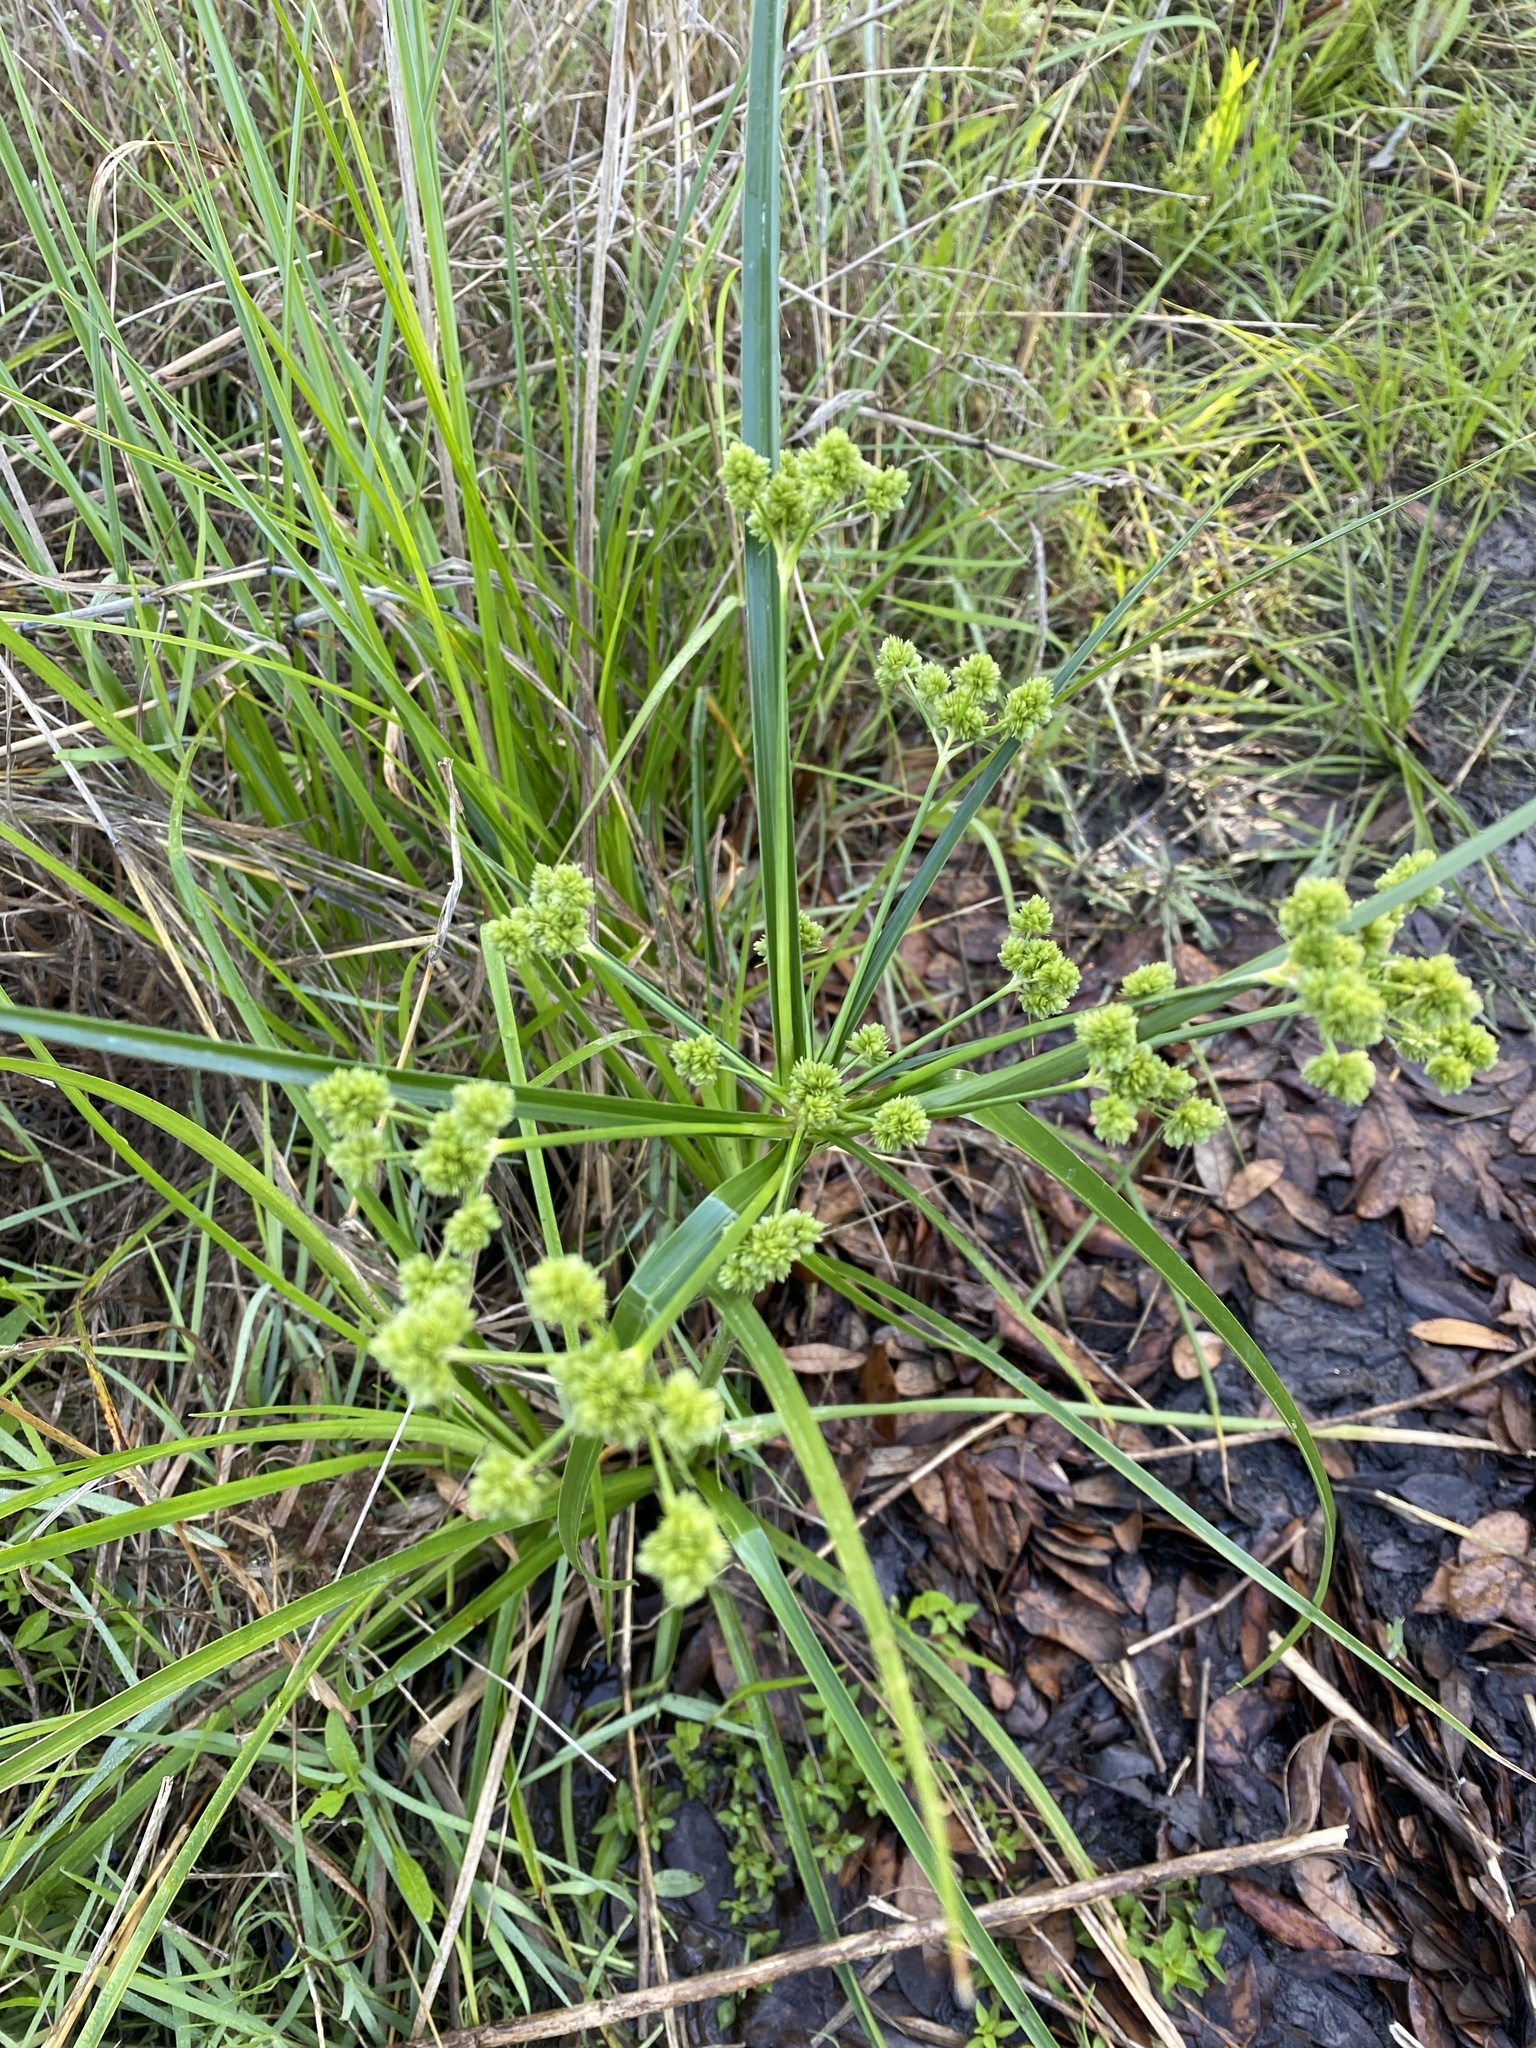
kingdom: Plantae
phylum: Tracheophyta
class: Liliopsida
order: Poales
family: Cyperaceae
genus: Cyperus
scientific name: Cyperus pseudovegetus
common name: Marsh flat sedge
